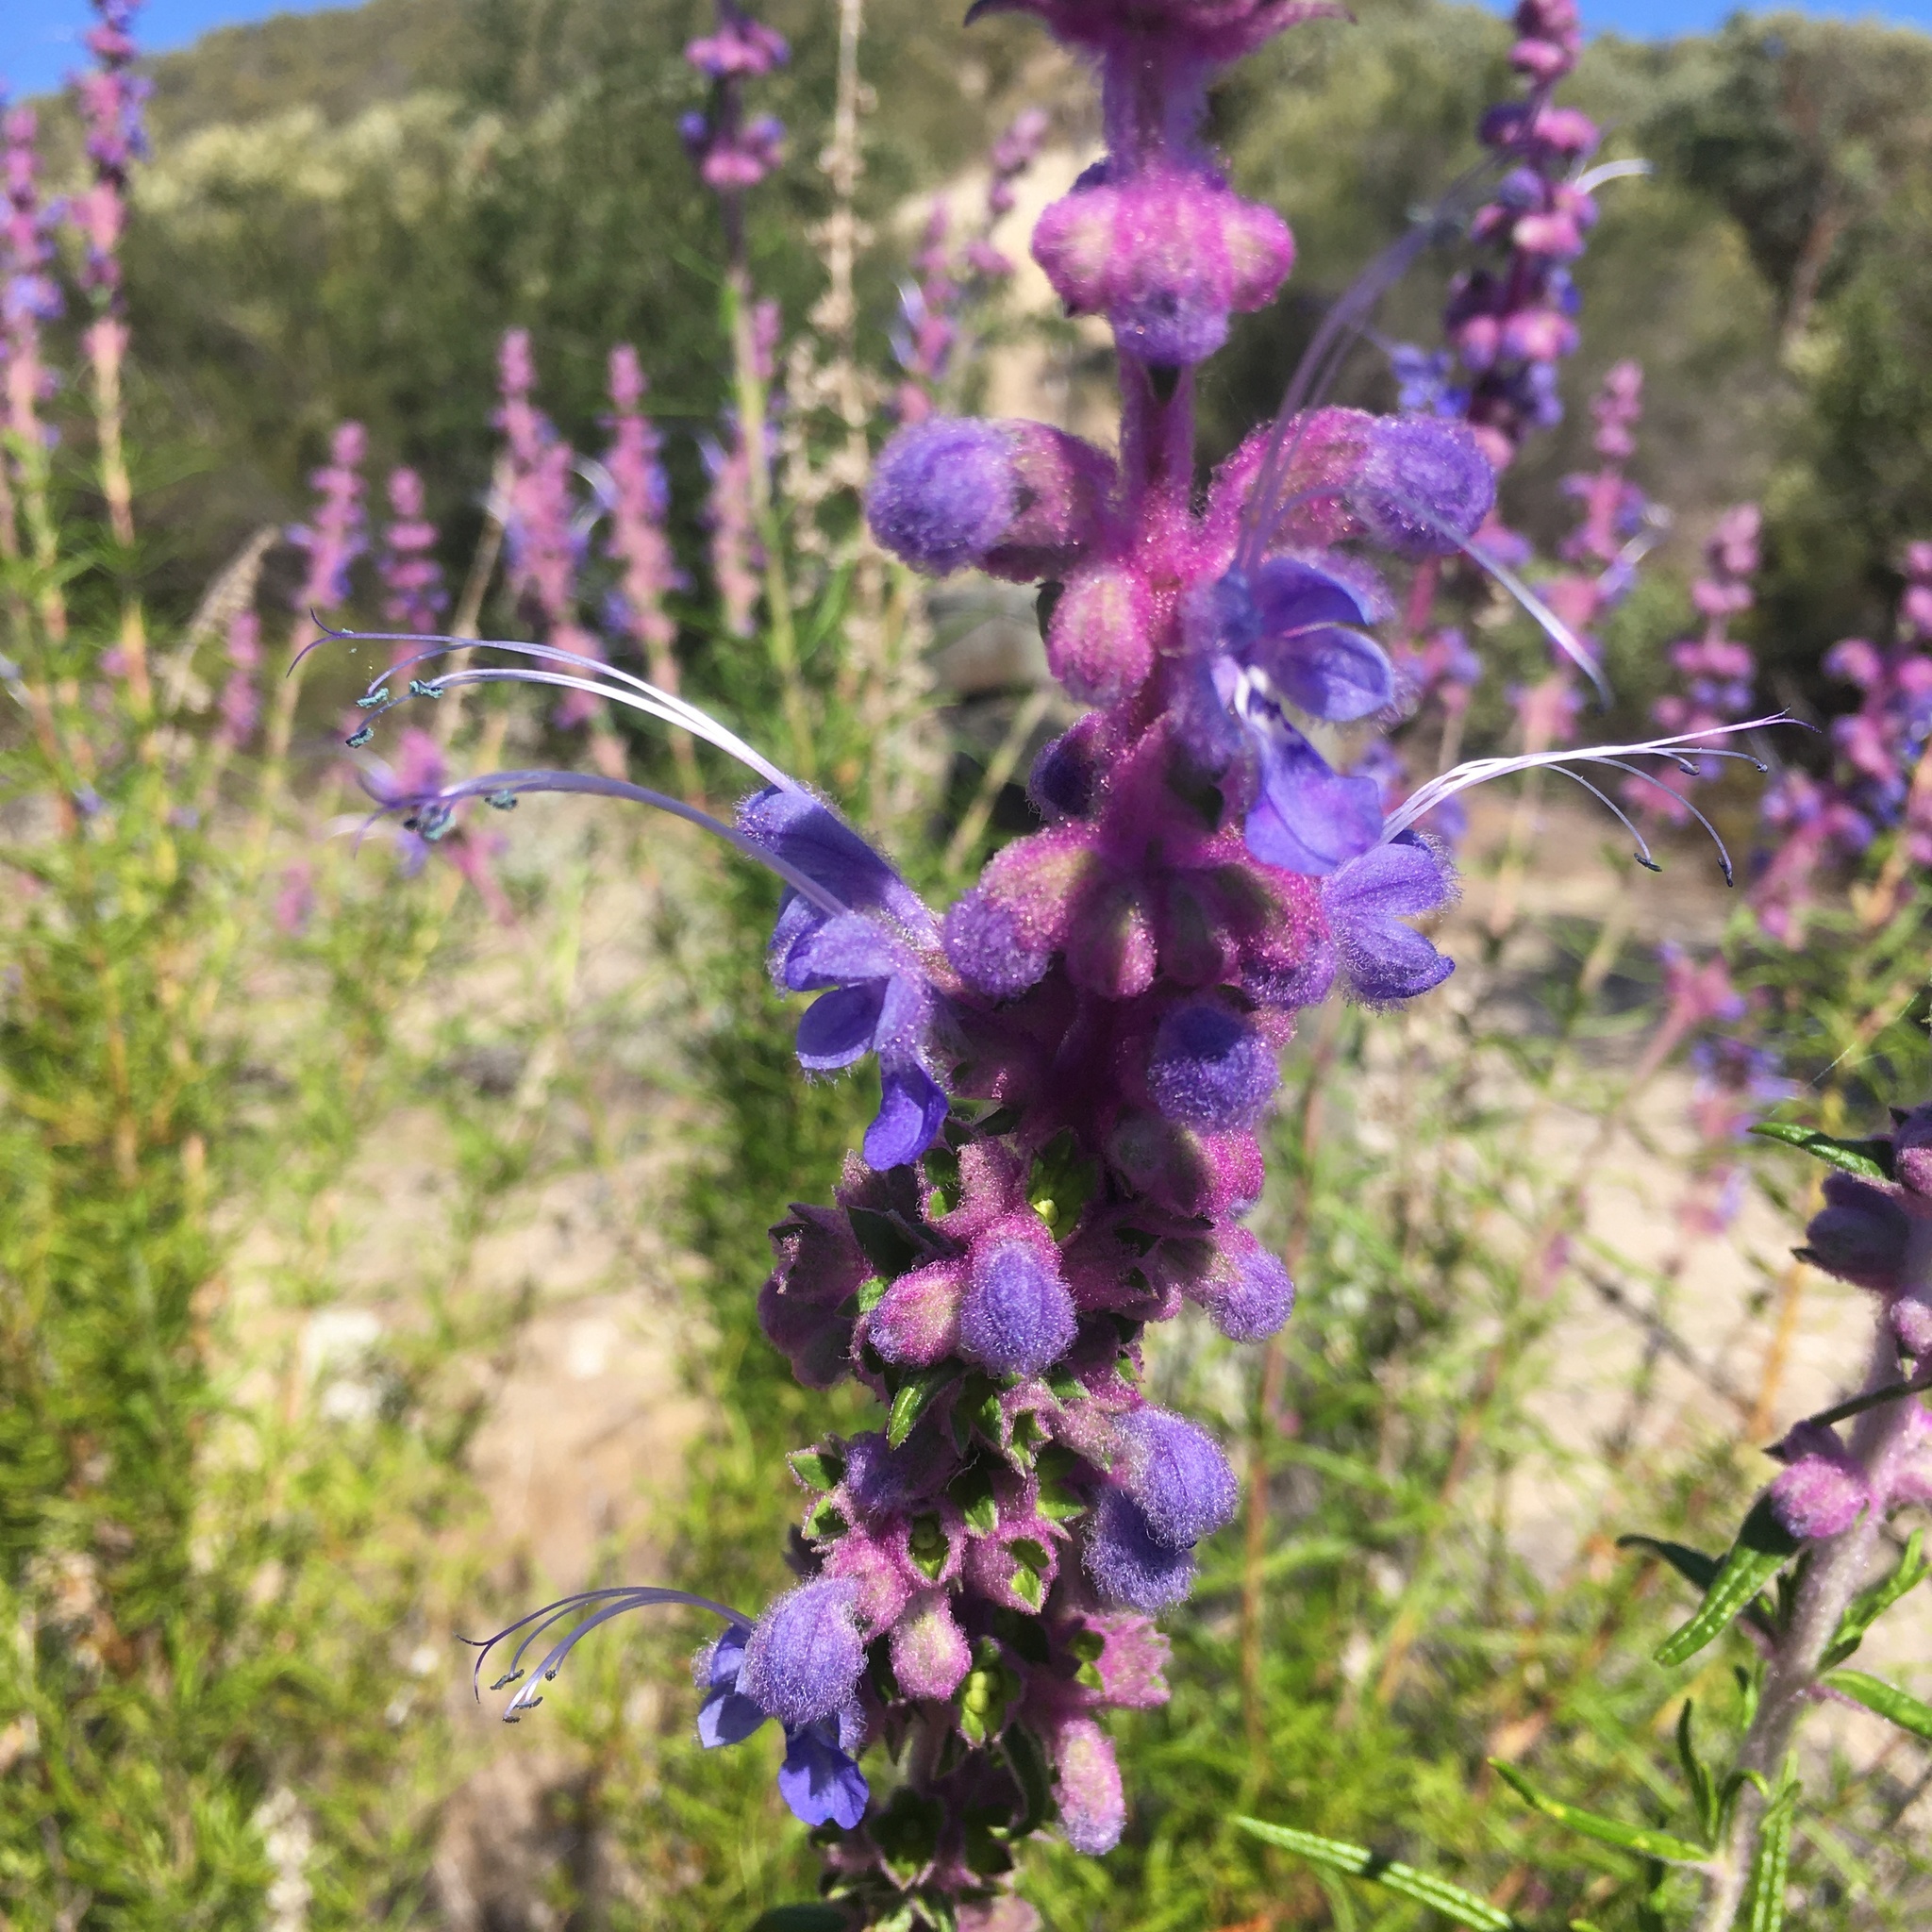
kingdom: Plantae
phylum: Tracheophyta
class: Magnoliopsida
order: Lamiales
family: Lamiaceae
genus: Trichostema
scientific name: Trichostema lanatum
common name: Woolly bluecurls
